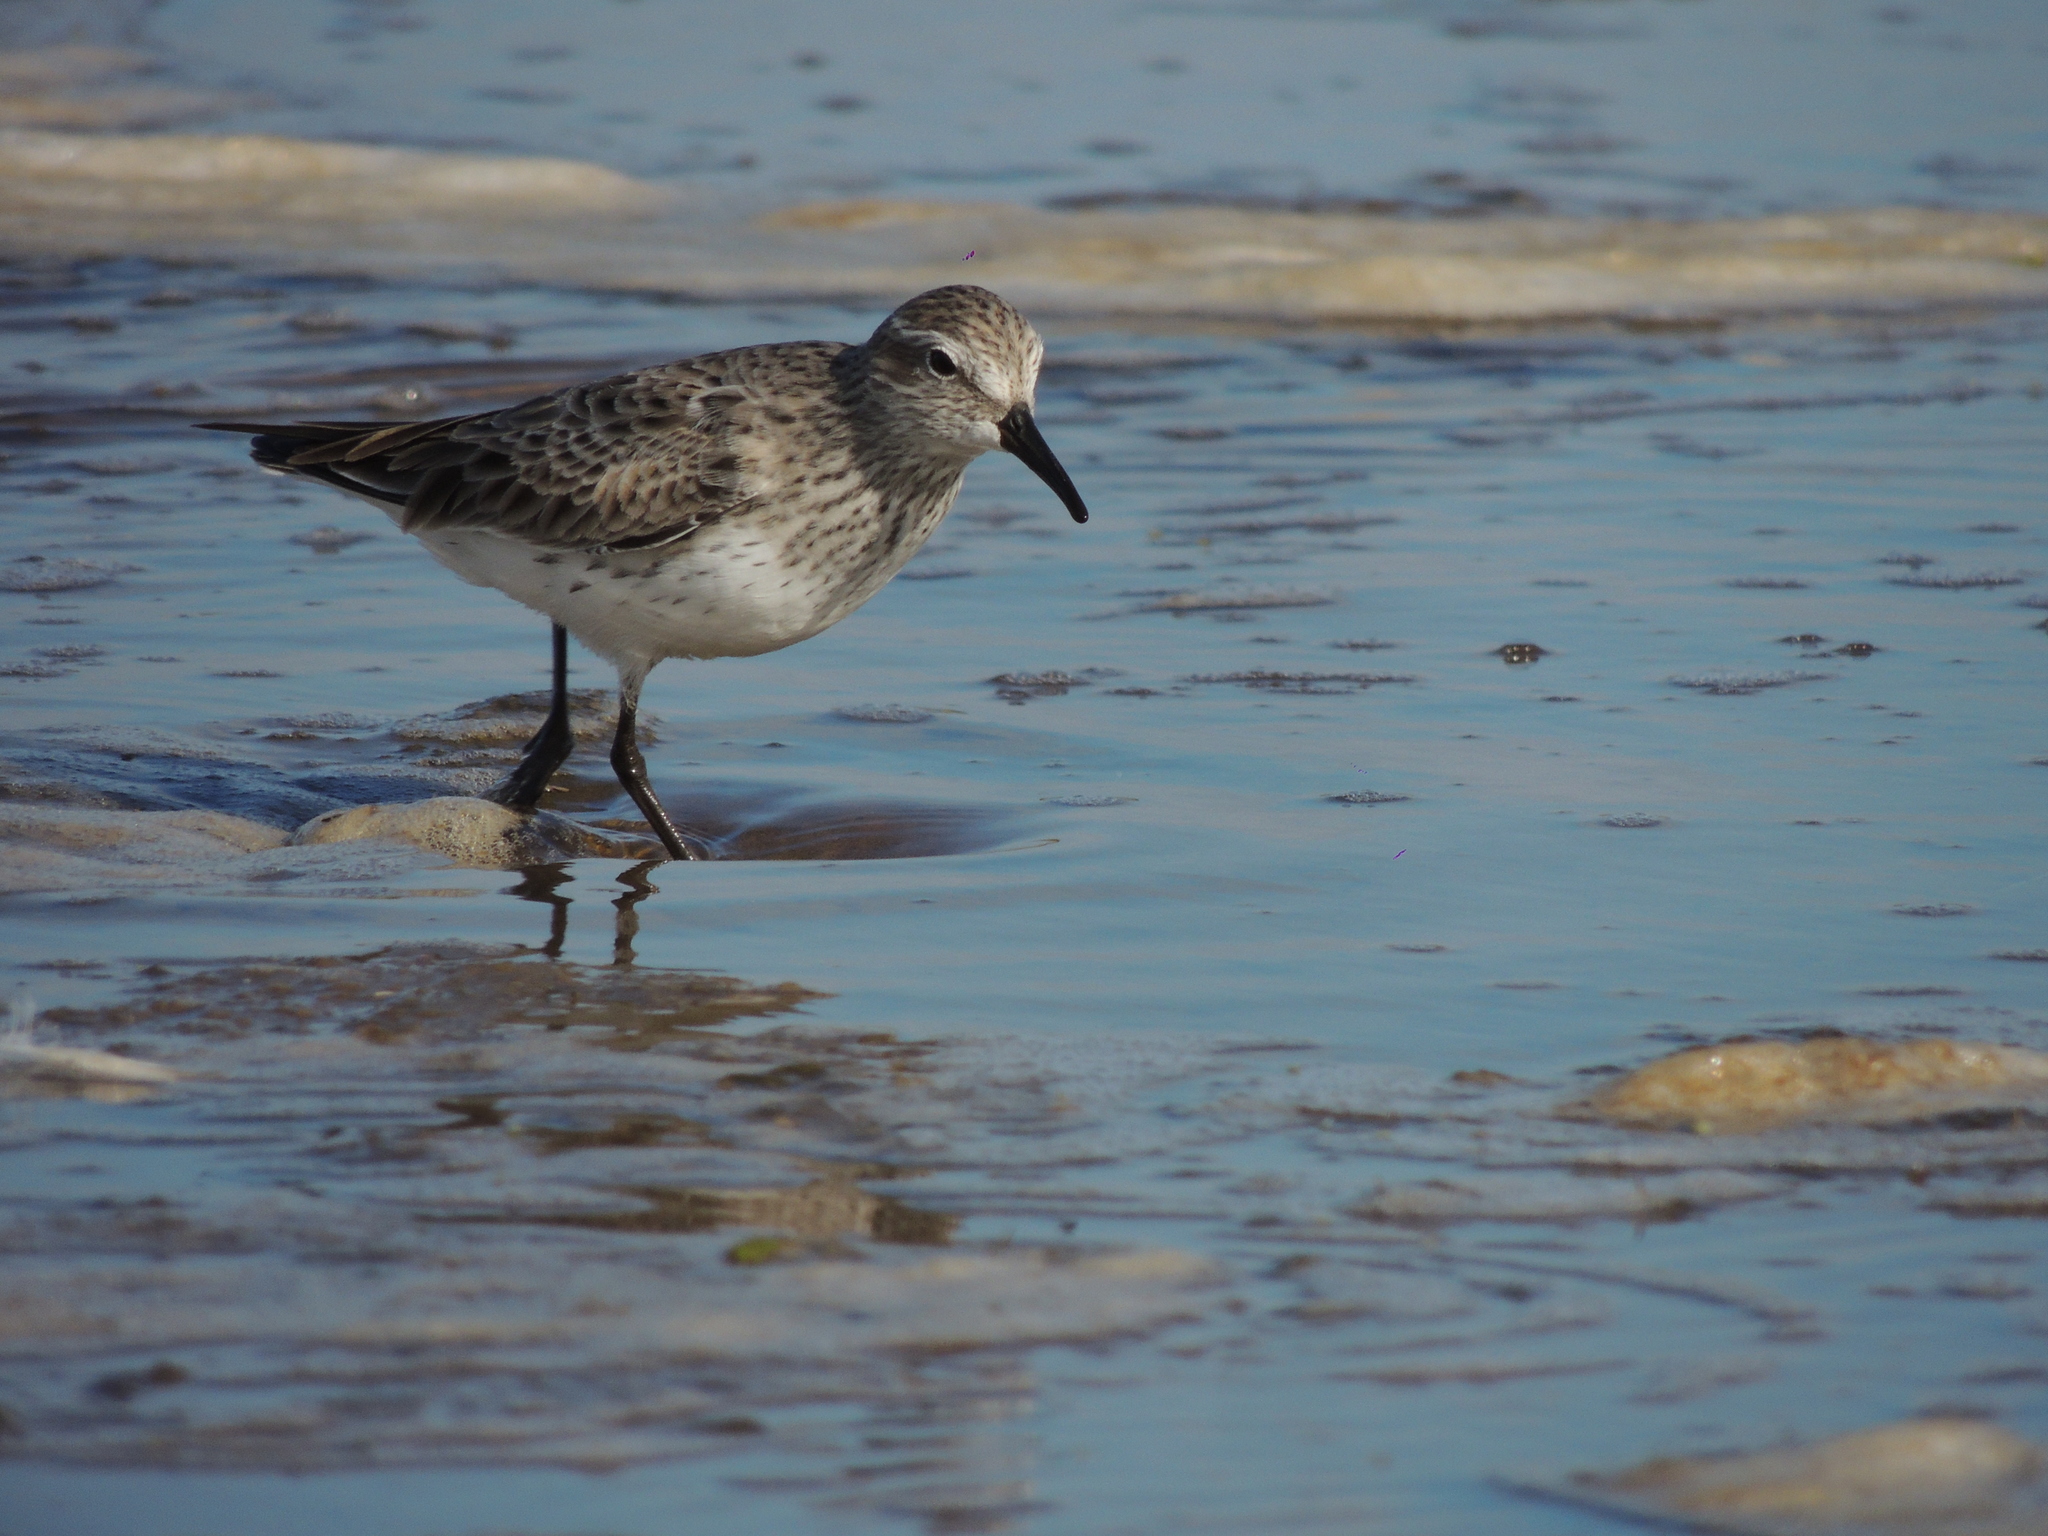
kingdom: Animalia
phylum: Chordata
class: Aves
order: Charadriiformes
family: Scolopacidae
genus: Calidris
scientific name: Calidris fuscicollis
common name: White-rumped sandpiper
